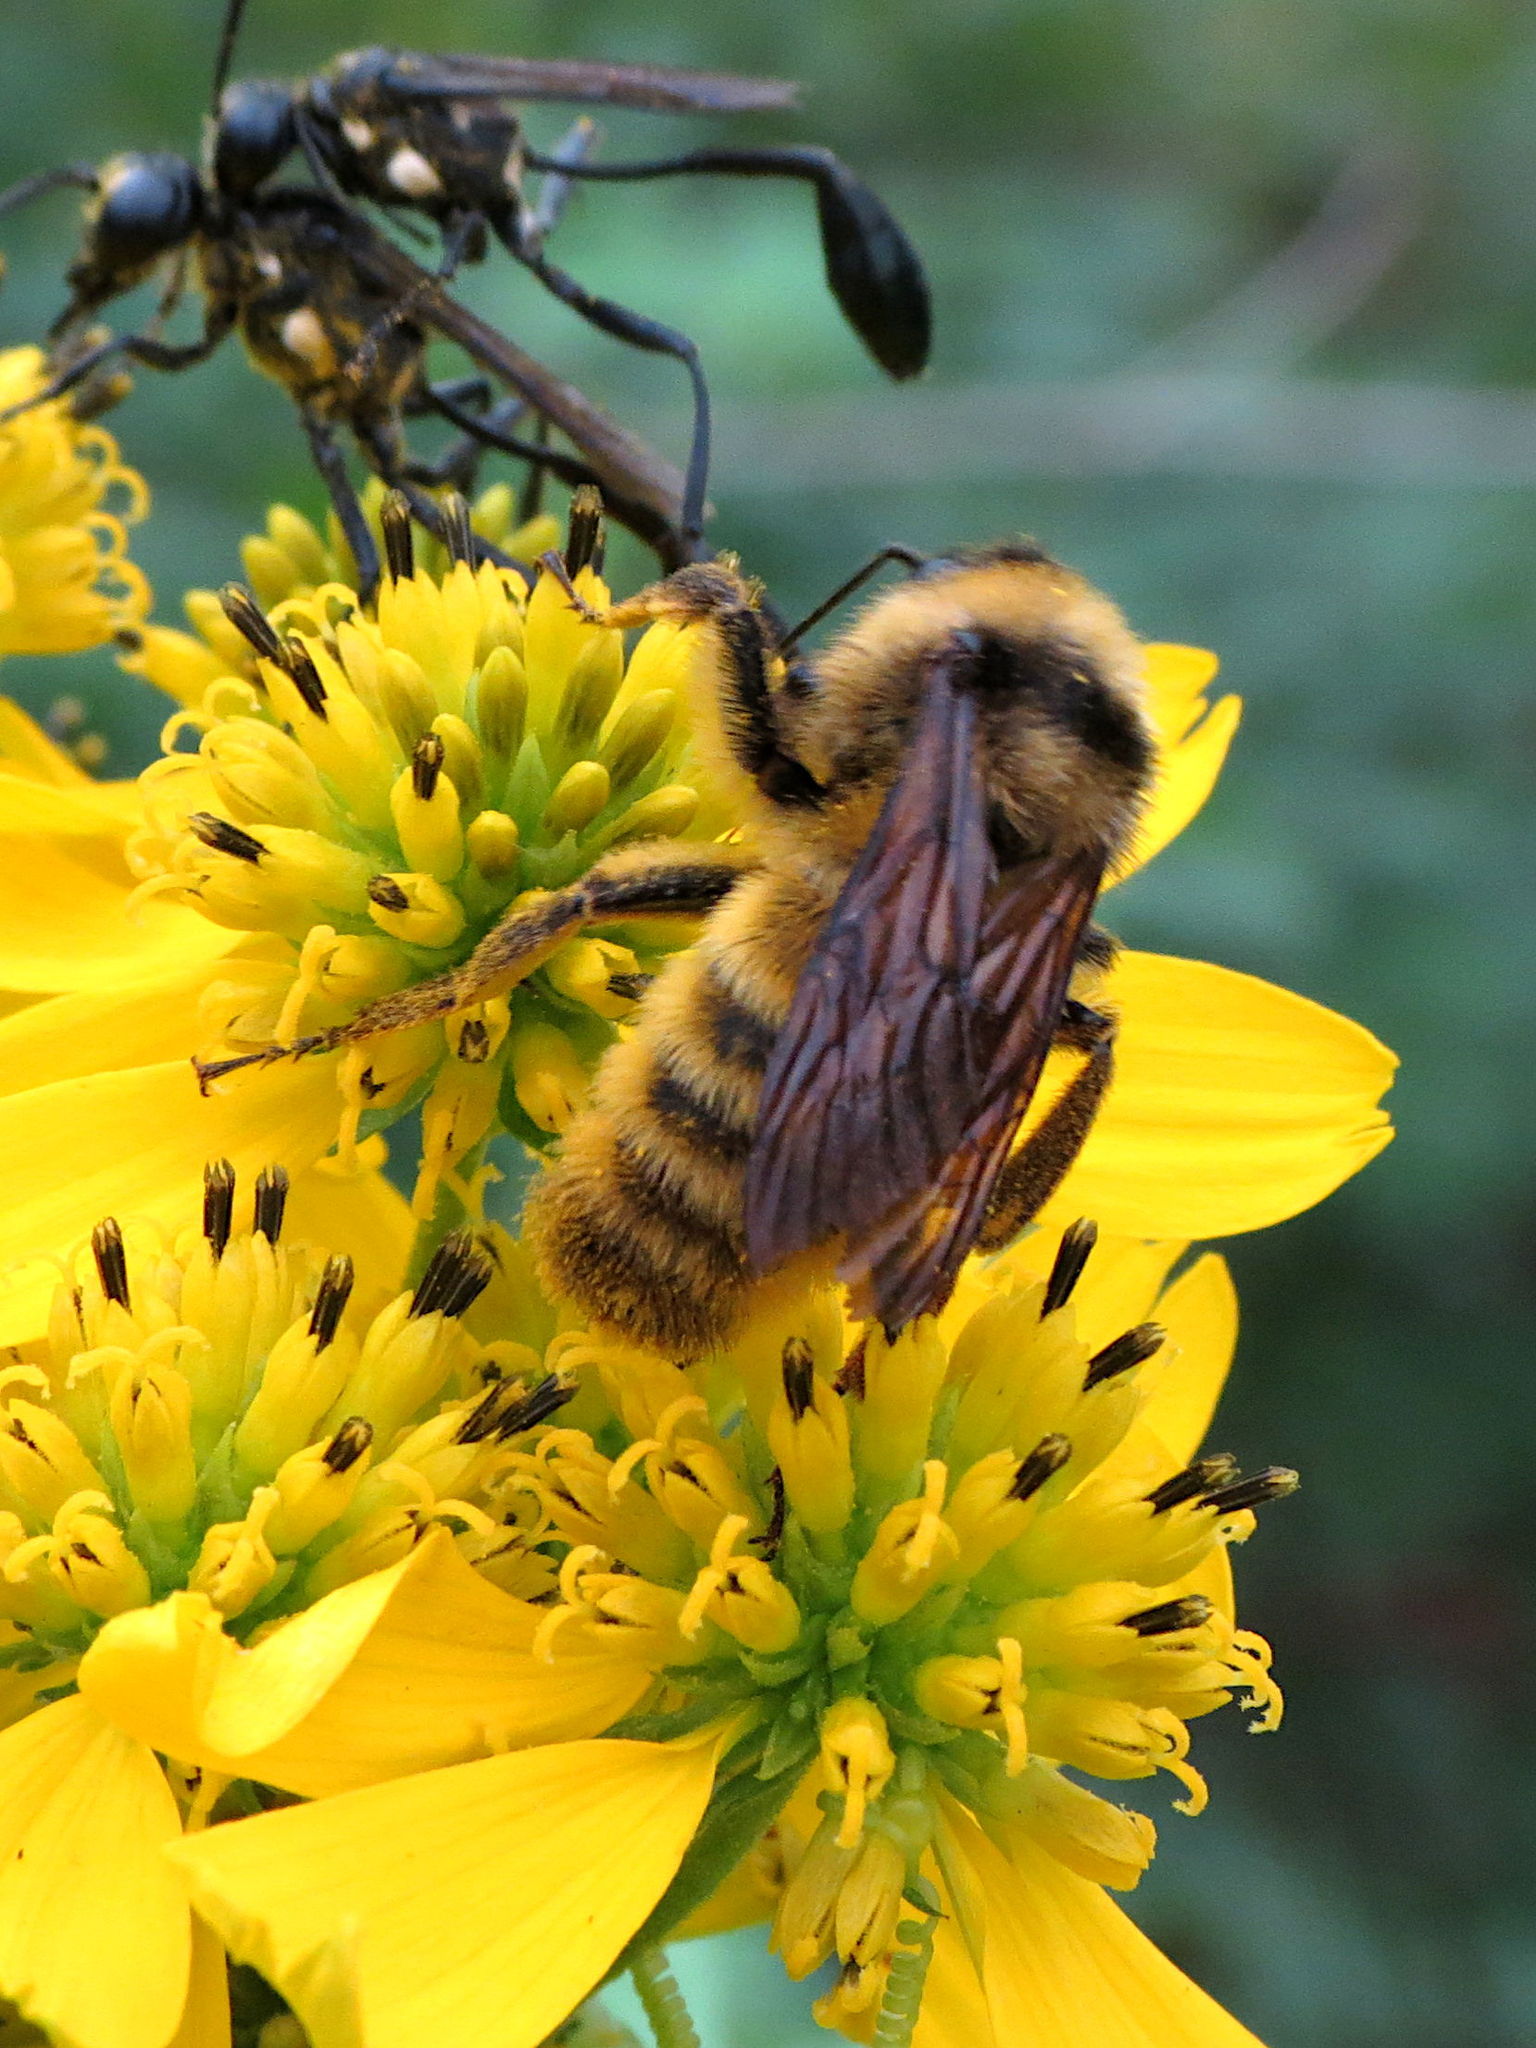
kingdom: Animalia
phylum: Arthropoda
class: Insecta
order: Hymenoptera
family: Apidae
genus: Bombus
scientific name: Bombus pensylvanicus
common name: Bumble bee
